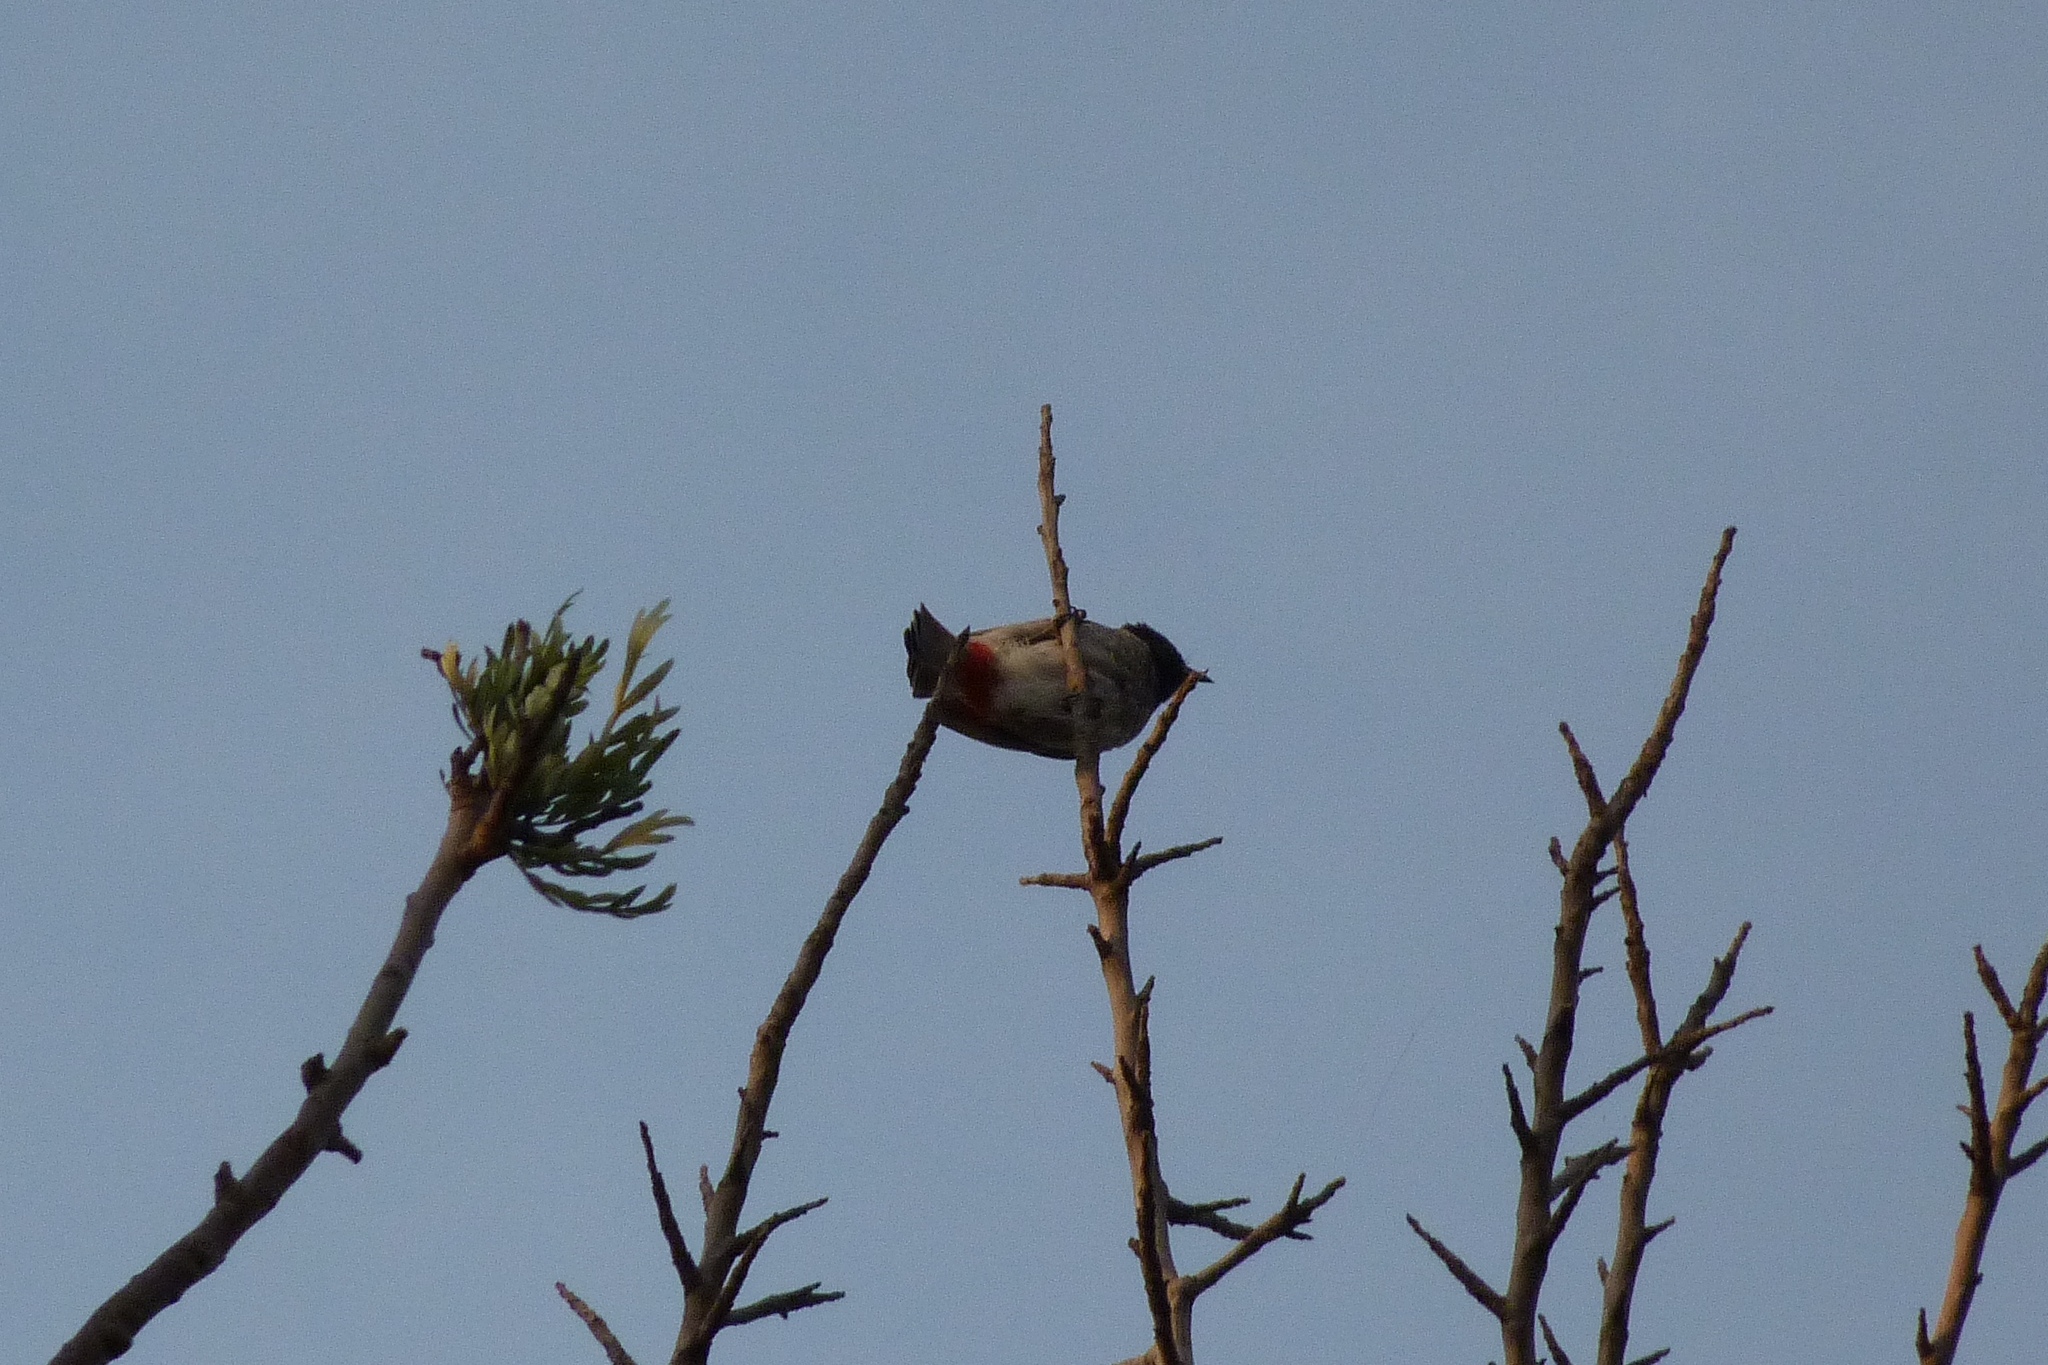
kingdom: Animalia
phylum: Chordata
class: Aves
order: Passeriformes
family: Pycnonotidae
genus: Pycnonotus
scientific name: Pycnonotus cafer
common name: Red-vented bulbul
